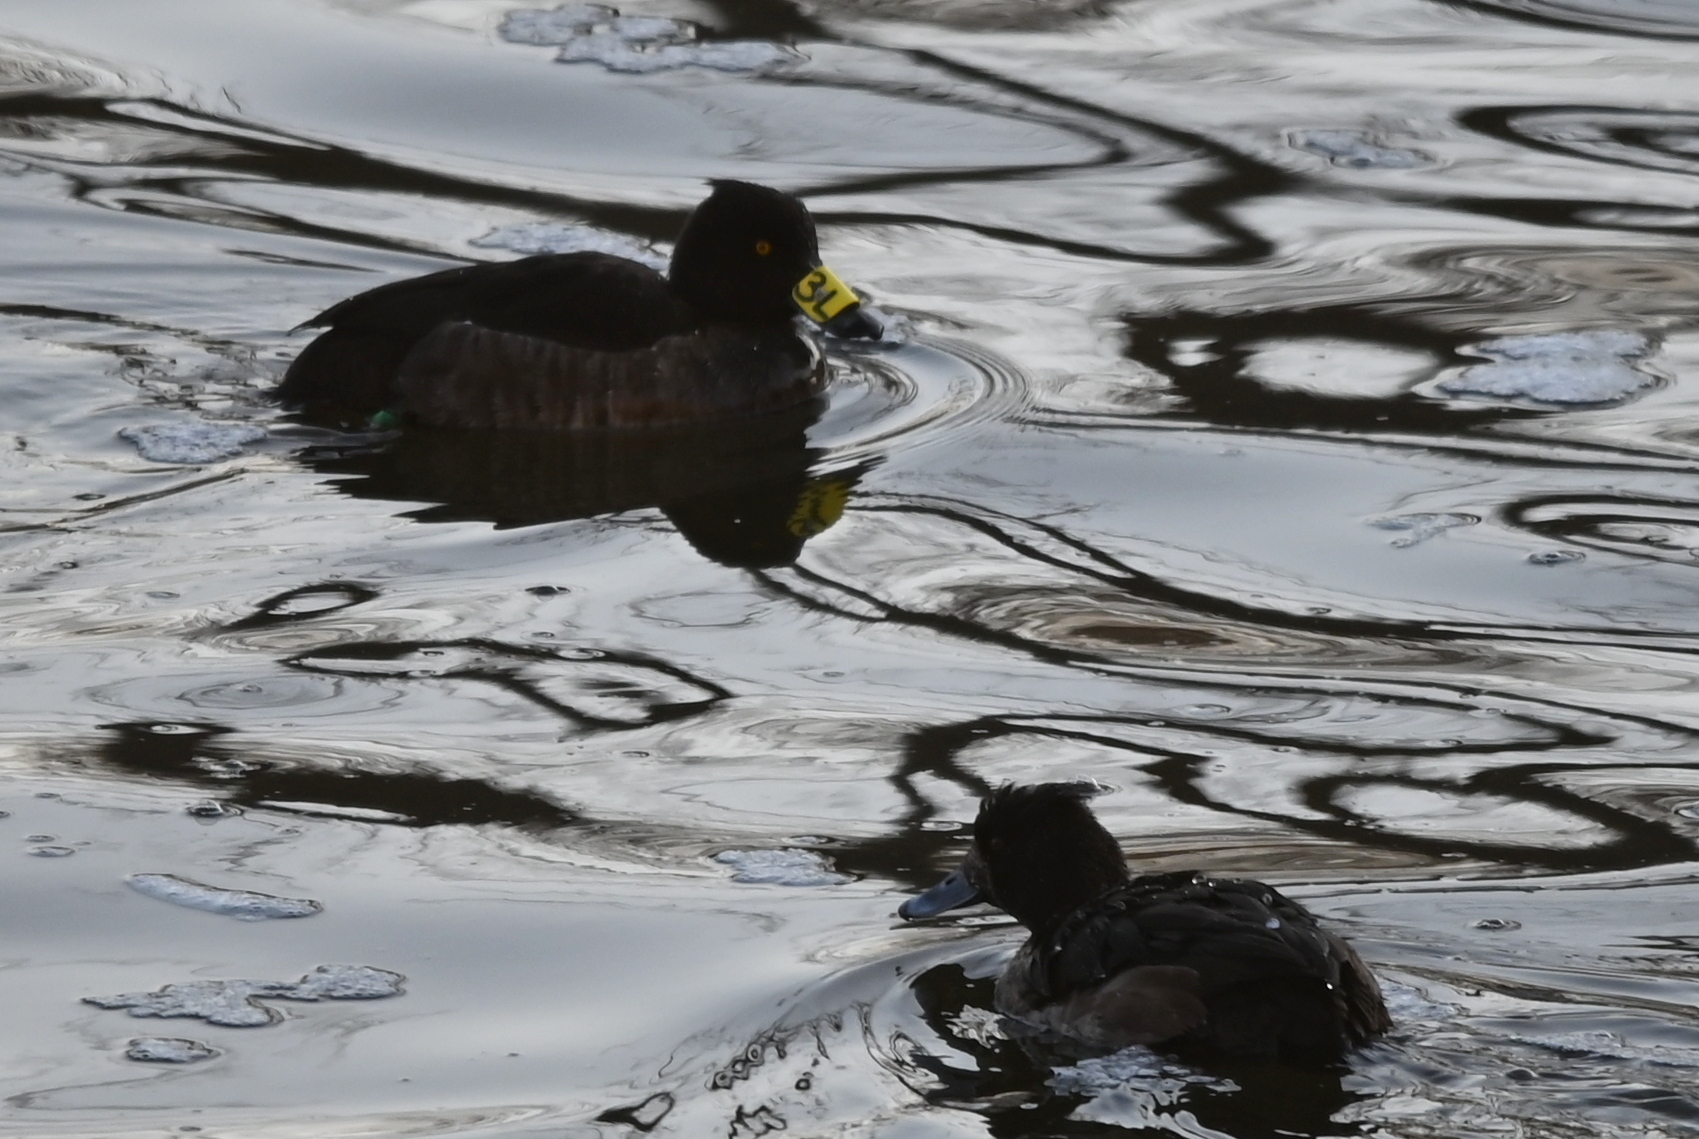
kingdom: Animalia
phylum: Chordata
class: Aves
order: Anseriformes
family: Anatidae
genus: Aythya
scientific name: Aythya fuligula
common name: Tufted duck
